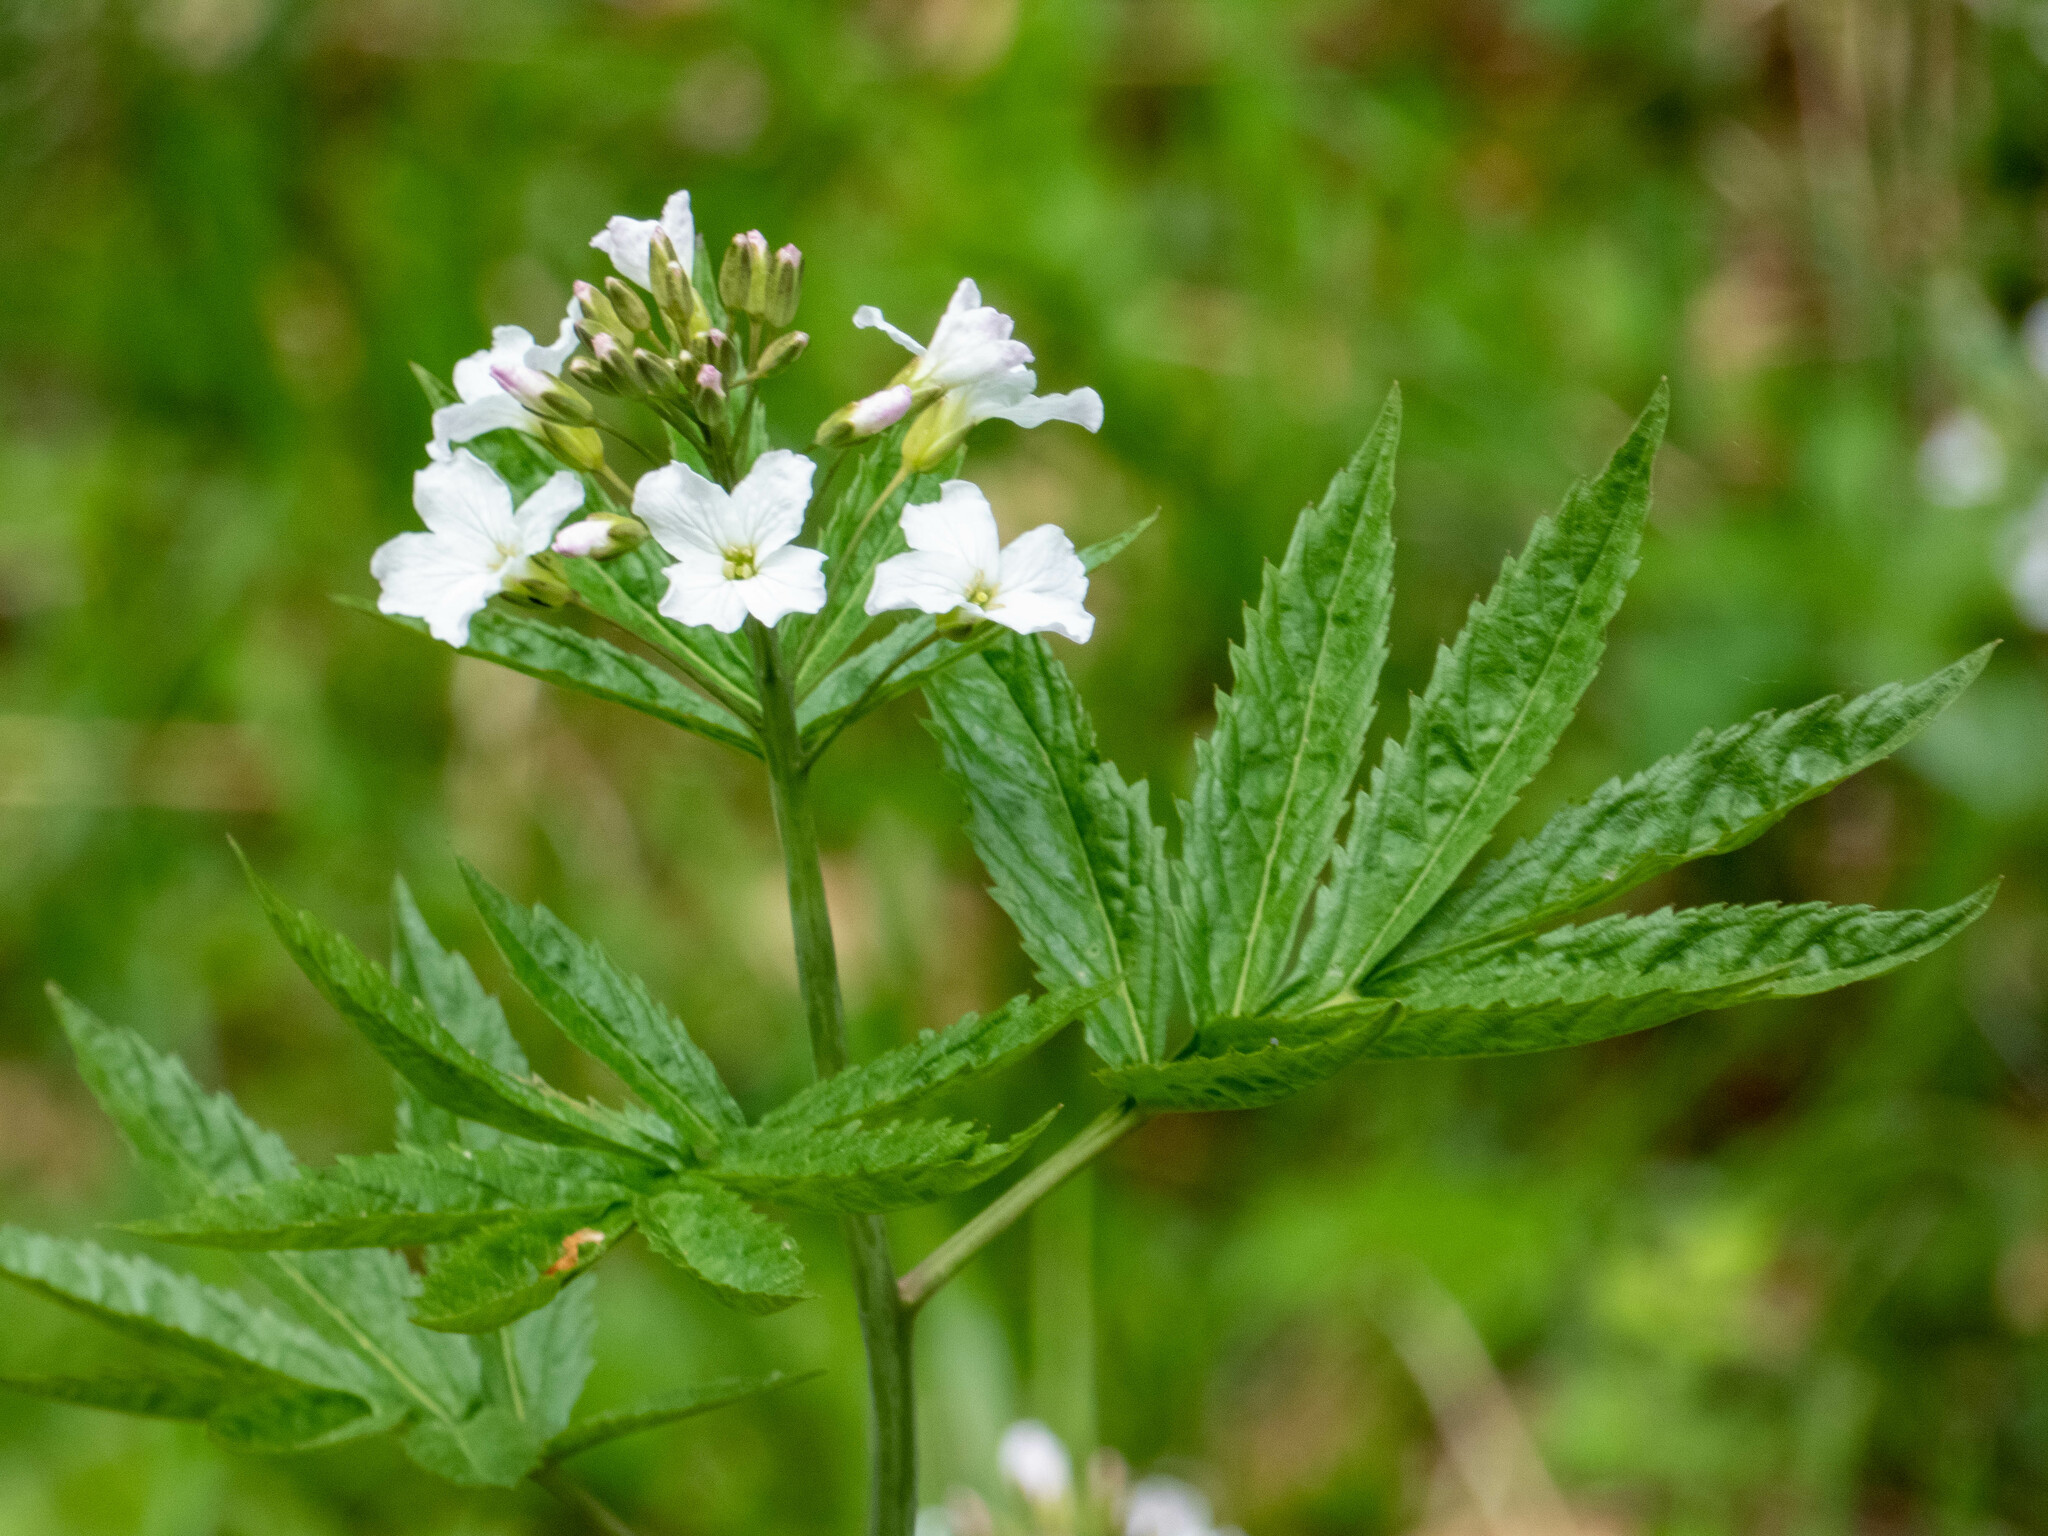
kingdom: Plantae
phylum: Tracheophyta
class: Magnoliopsida
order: Brassicales
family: Brassicaceae
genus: Cardamine
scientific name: Cardamine heptaphylla
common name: Pinnate coralroot
